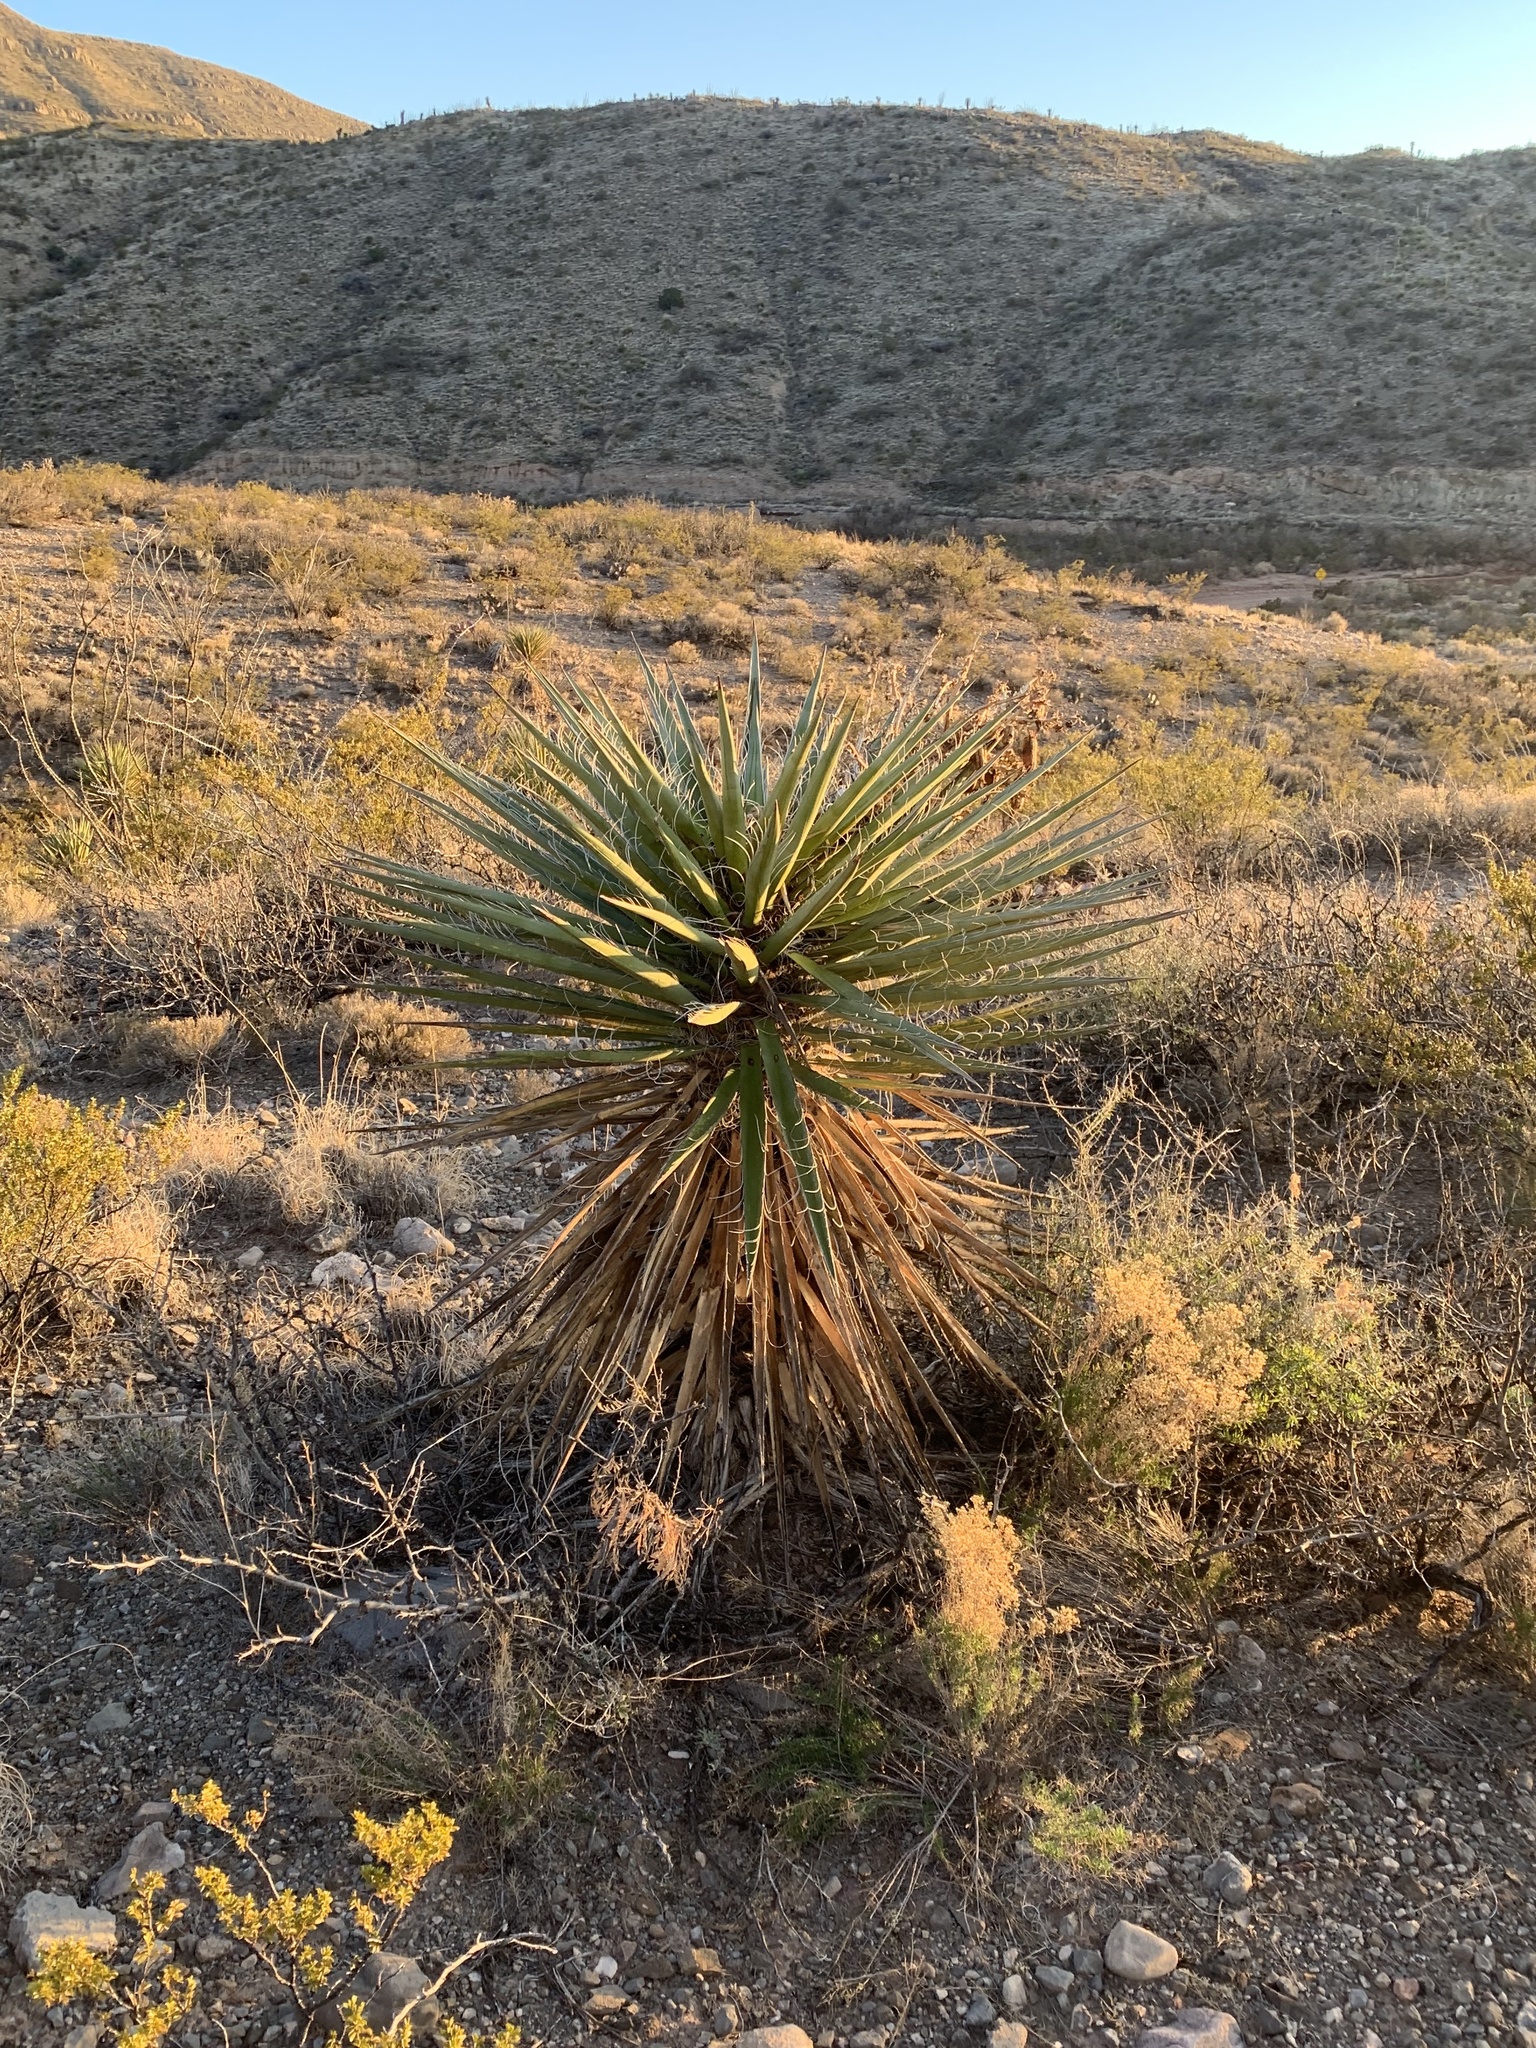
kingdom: Plantae
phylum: Tracheophyta
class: Liliopsida
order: Asparagales
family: Asparagaceae
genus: Yucca
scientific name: Yucca treculiana
